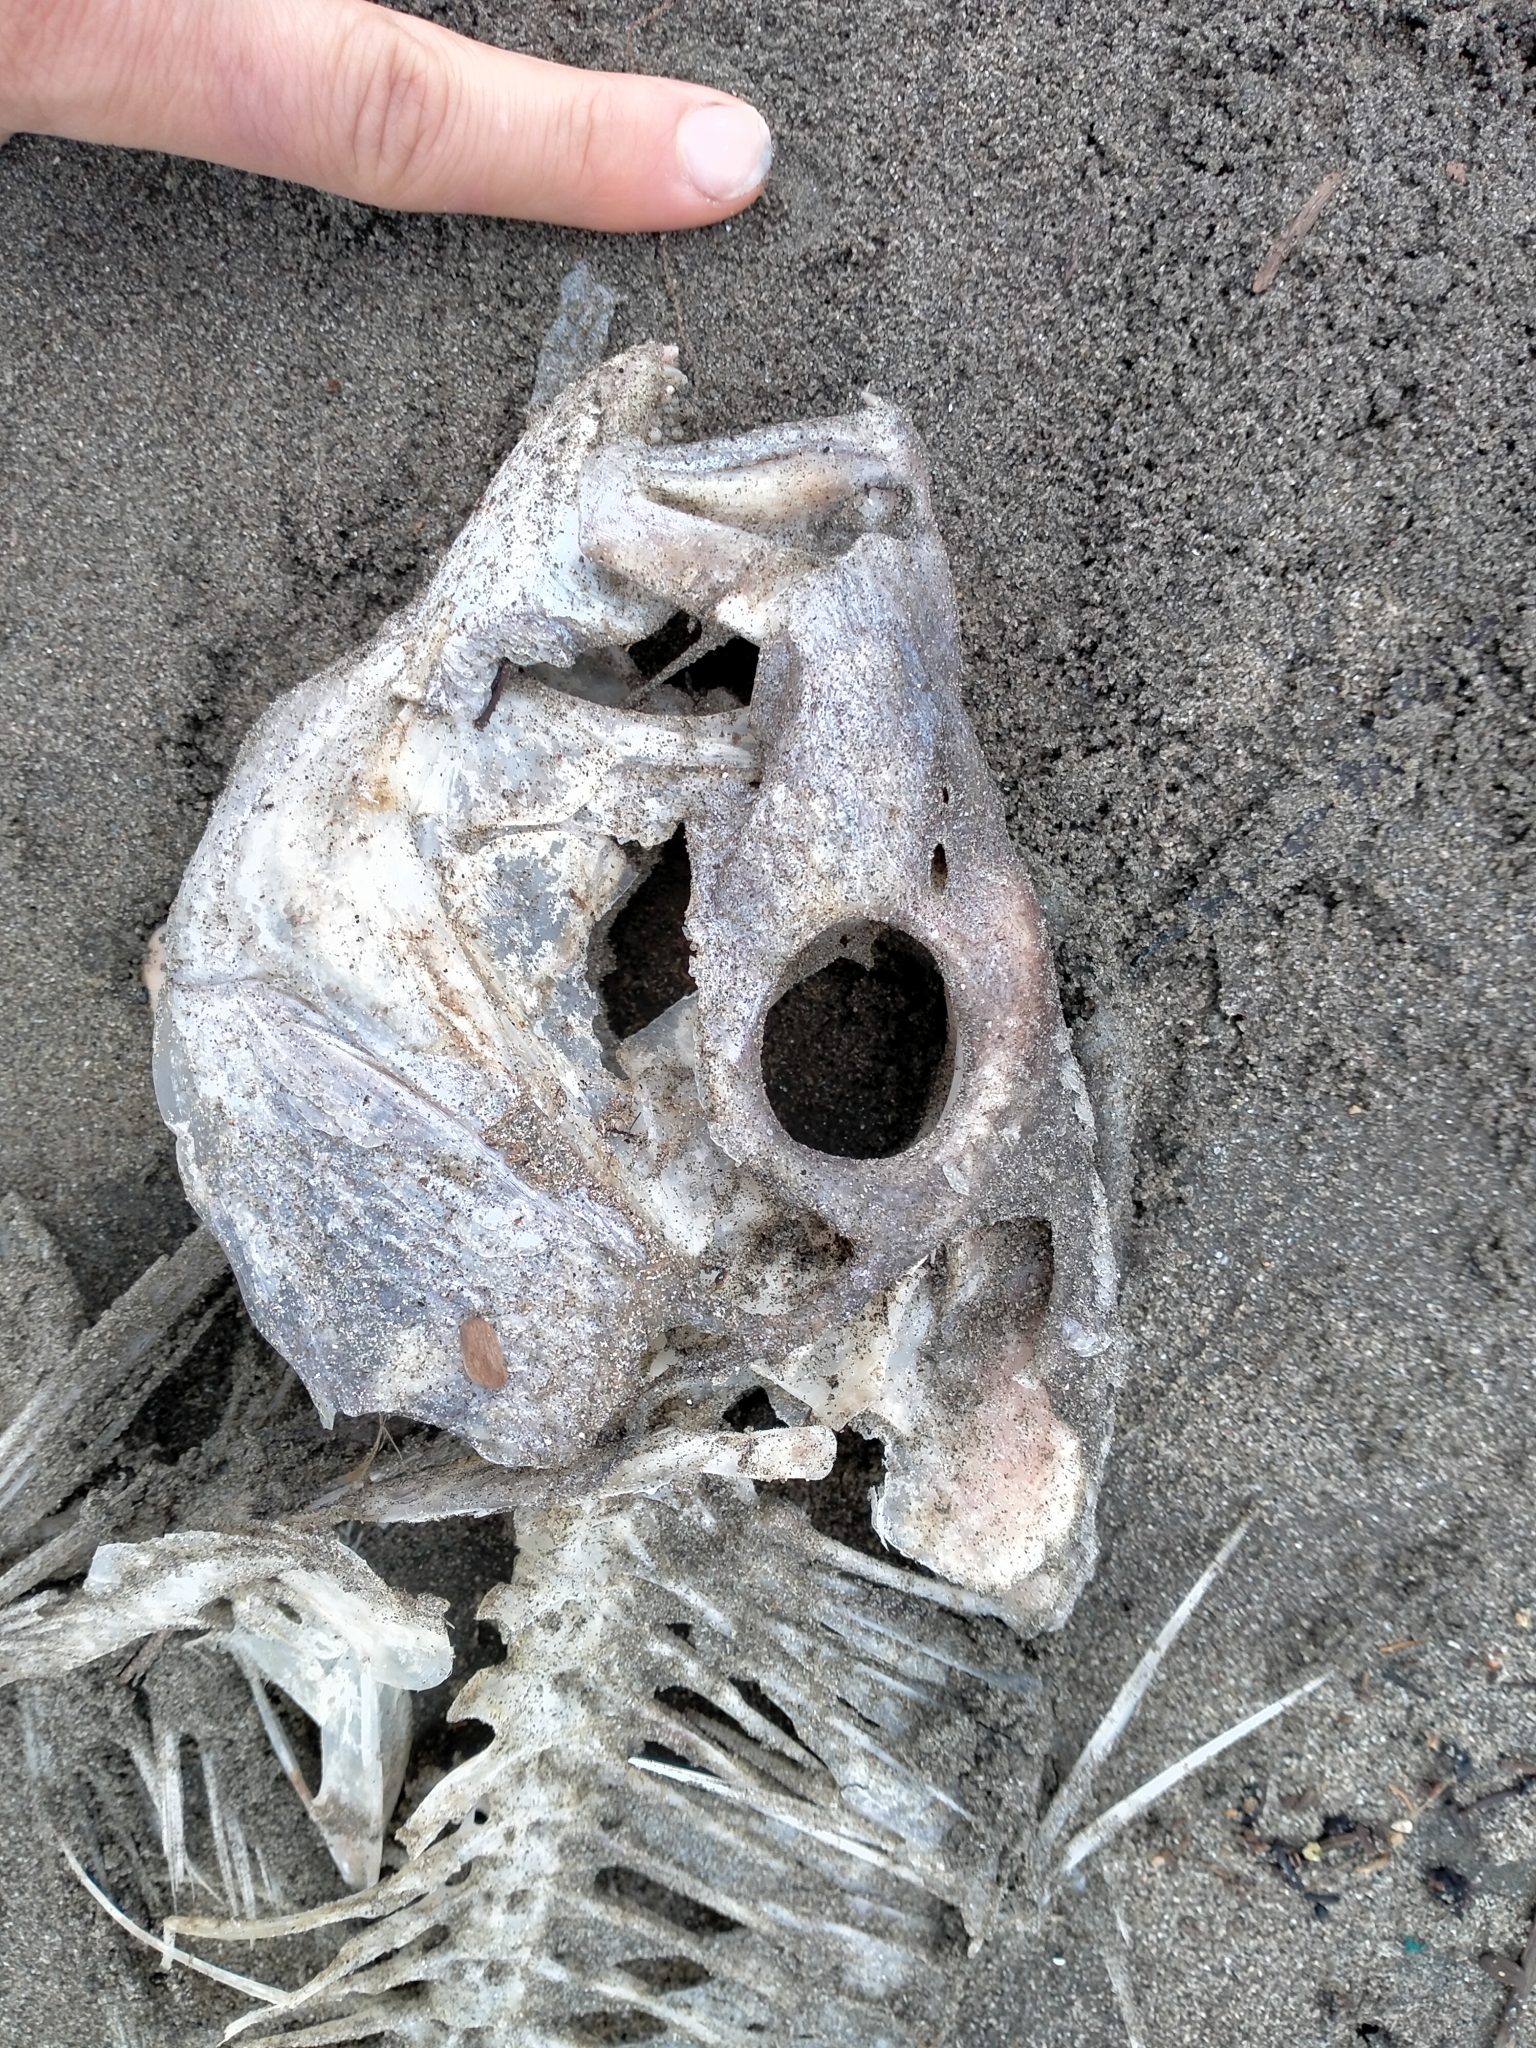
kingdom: Animalia
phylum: Chordata
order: Perciformes
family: Sparidae
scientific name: Sparidae
